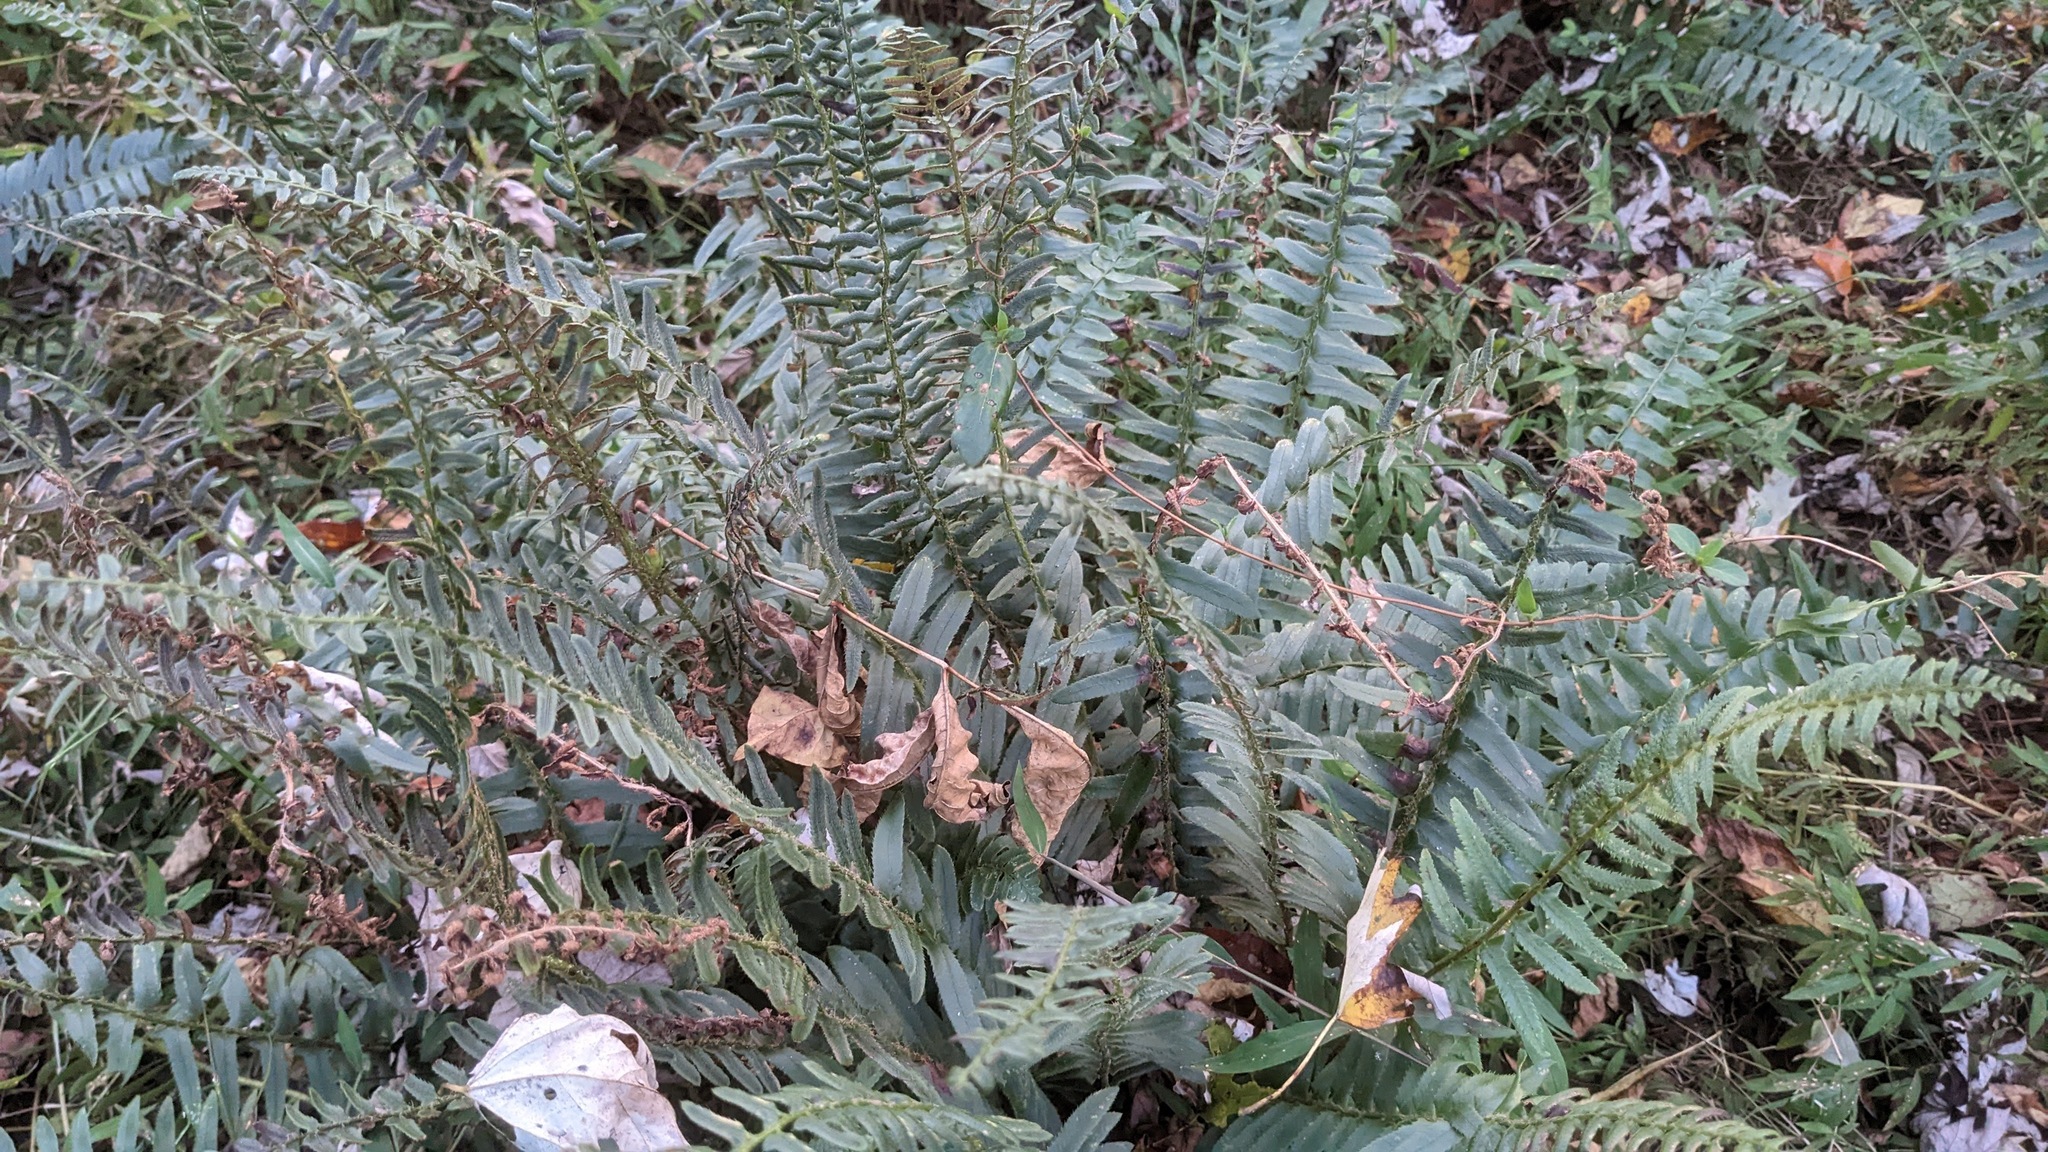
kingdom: Plantae
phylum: Tracheophyta
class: Polypodiopsida
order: Polypodiales
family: Dryopteridaceae
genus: Polystichum
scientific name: Polystichum acrostichoides
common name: Christmas fern
